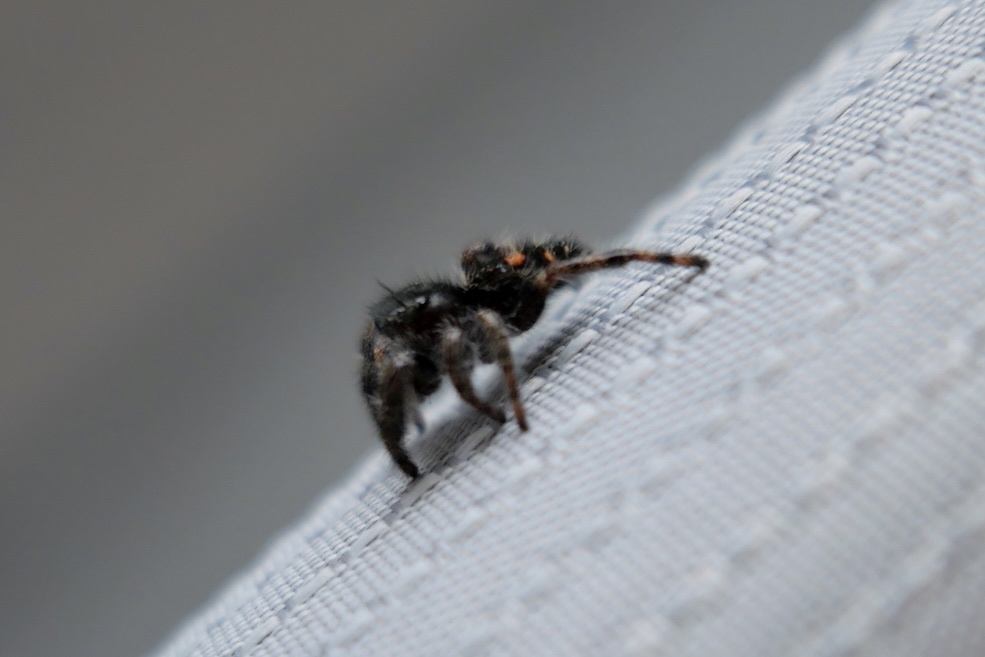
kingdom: Animalia
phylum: Arthropoda
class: Arachnida
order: Araneae
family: Salticidae
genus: Phidippus
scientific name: Phidippus audax
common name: Bold jumper
